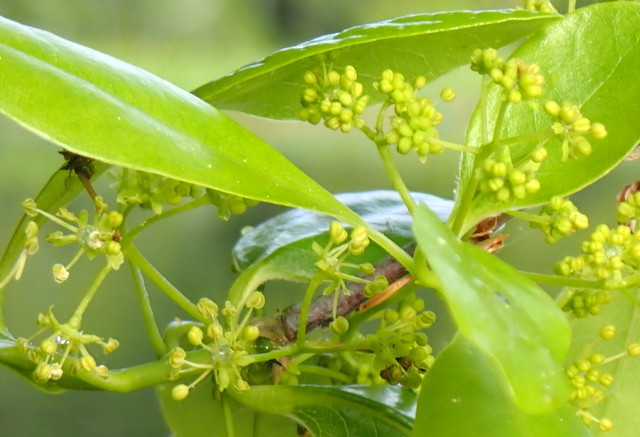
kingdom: Plantae
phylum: Tracheophyta
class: Magnoliopsida
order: Cornales
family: Nyssaceae
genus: Nyssa
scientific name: Nyssa biflora
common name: Swamp blackgum
